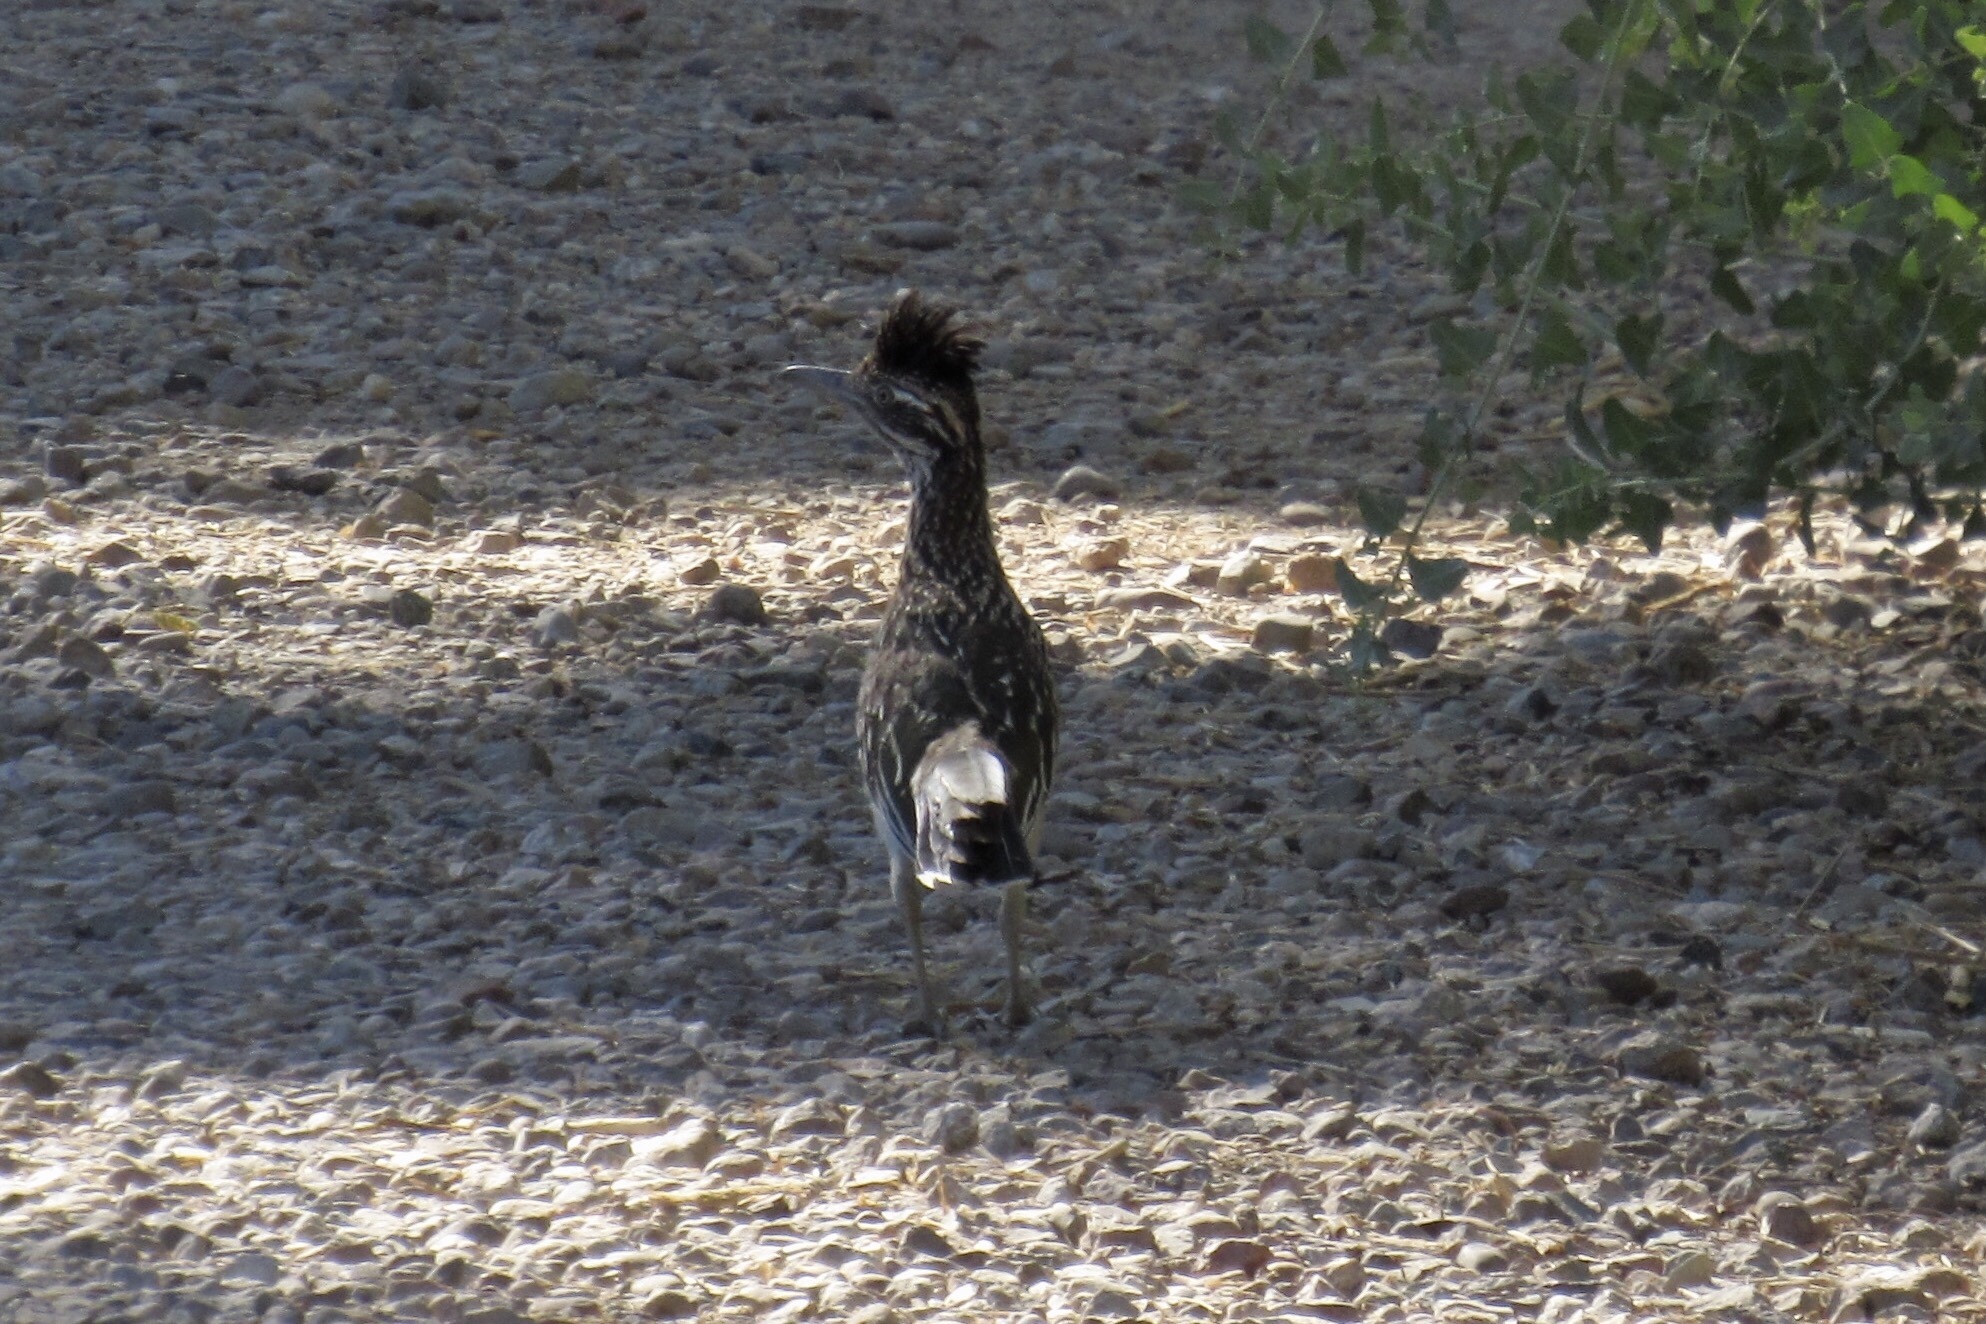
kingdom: Animalia
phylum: Chordata
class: Aves
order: Cuculiformes
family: Cuculidae
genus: Geococcyx
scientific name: Geococcyx californianus
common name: Greater roadrunner
